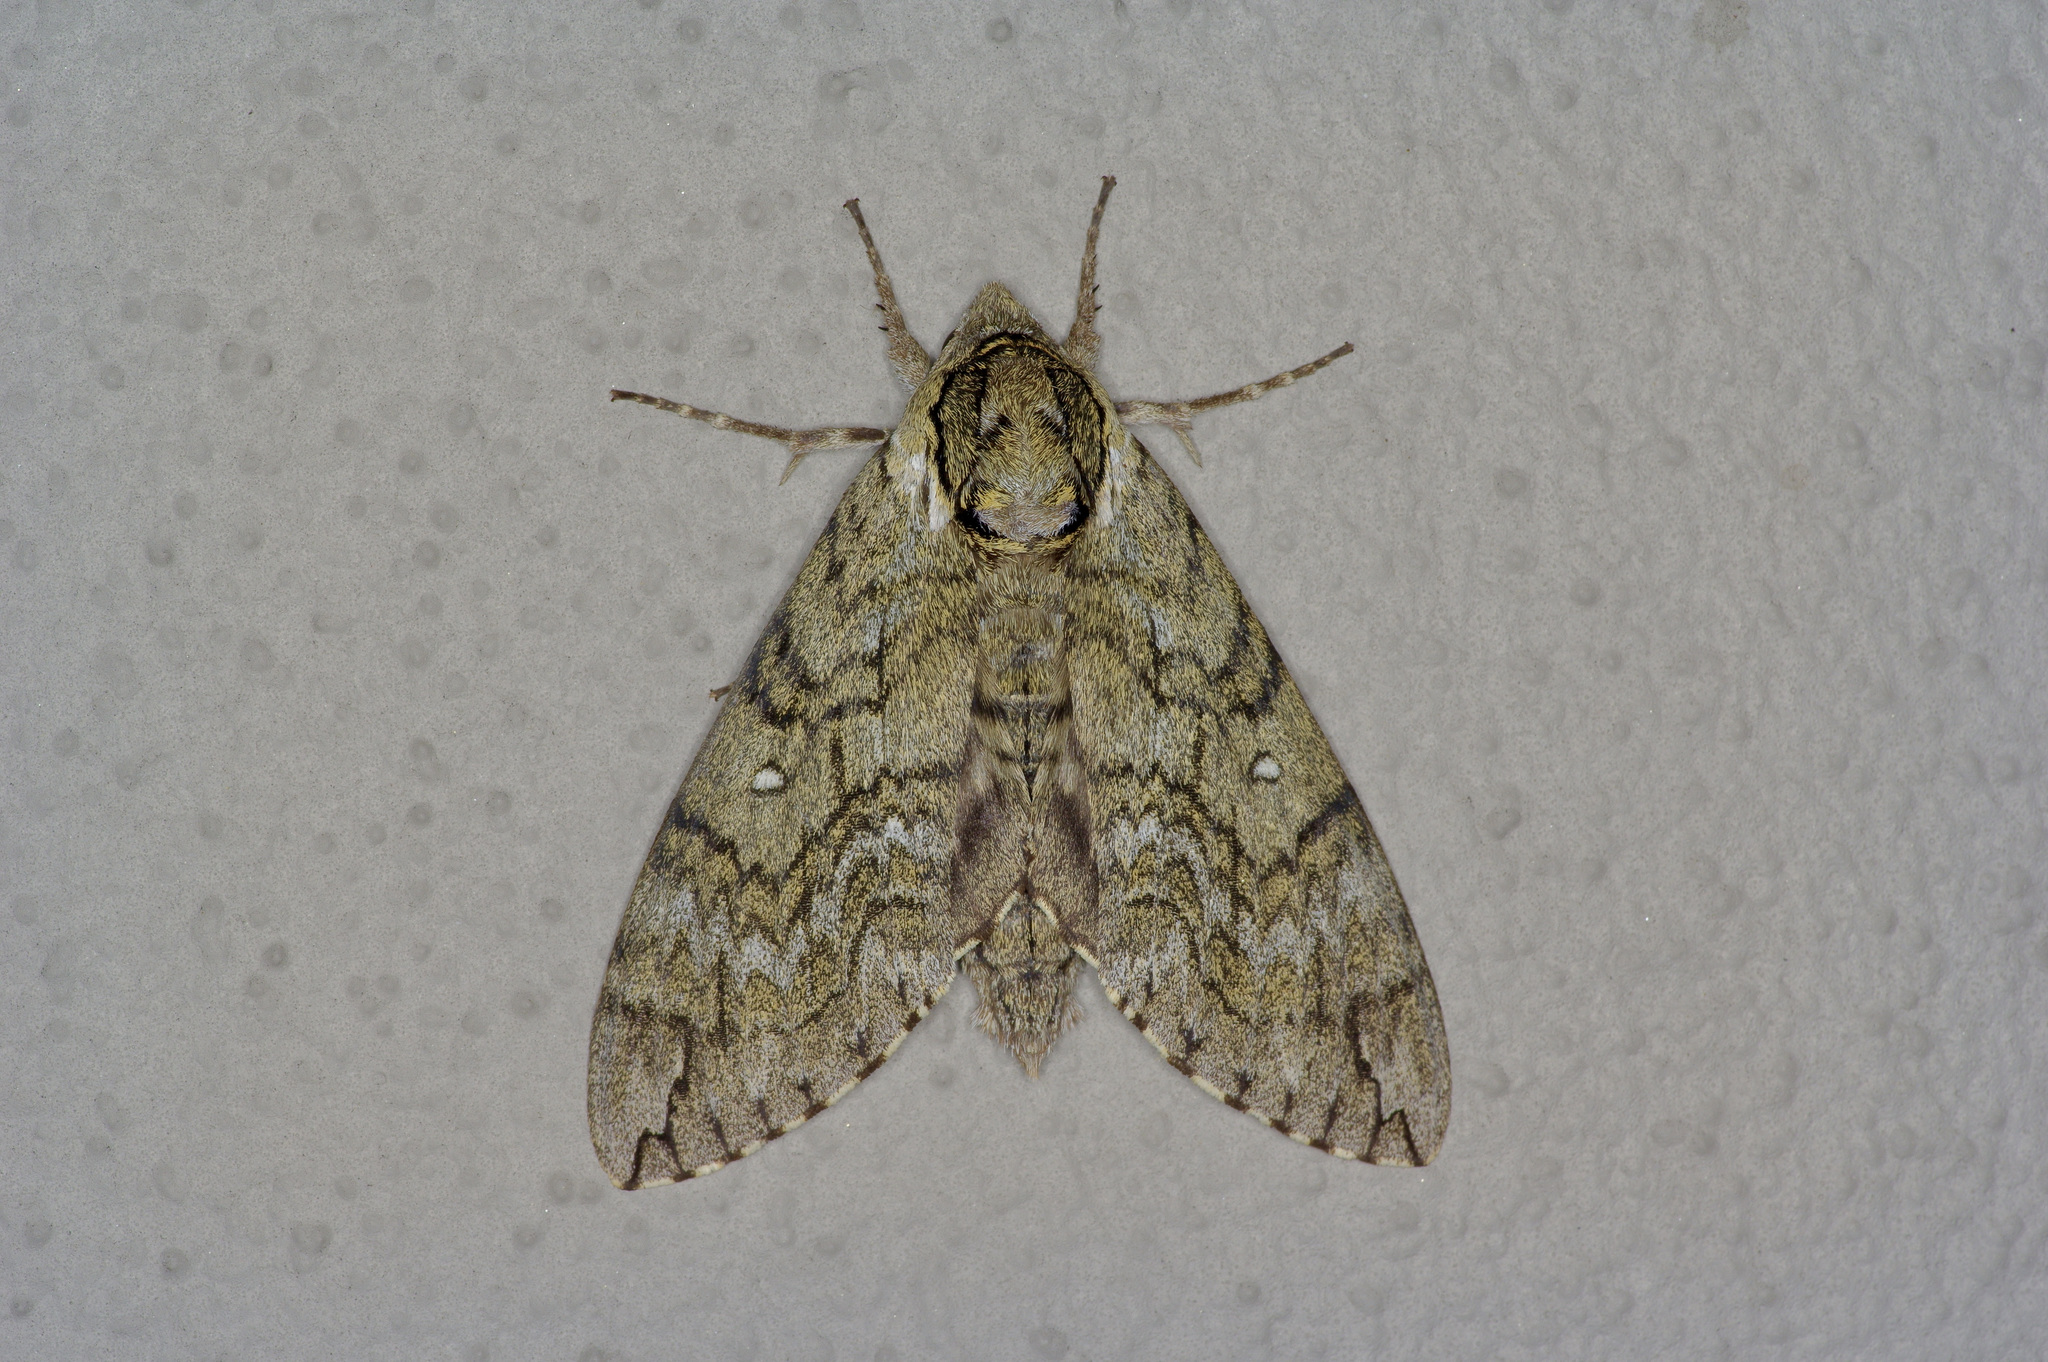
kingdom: Animalia
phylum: Arthropoda
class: Insecta
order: Lepidoptera
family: Sphingidae
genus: Ceratomia
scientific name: Ceratomia undulosa
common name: Waved sphinx
